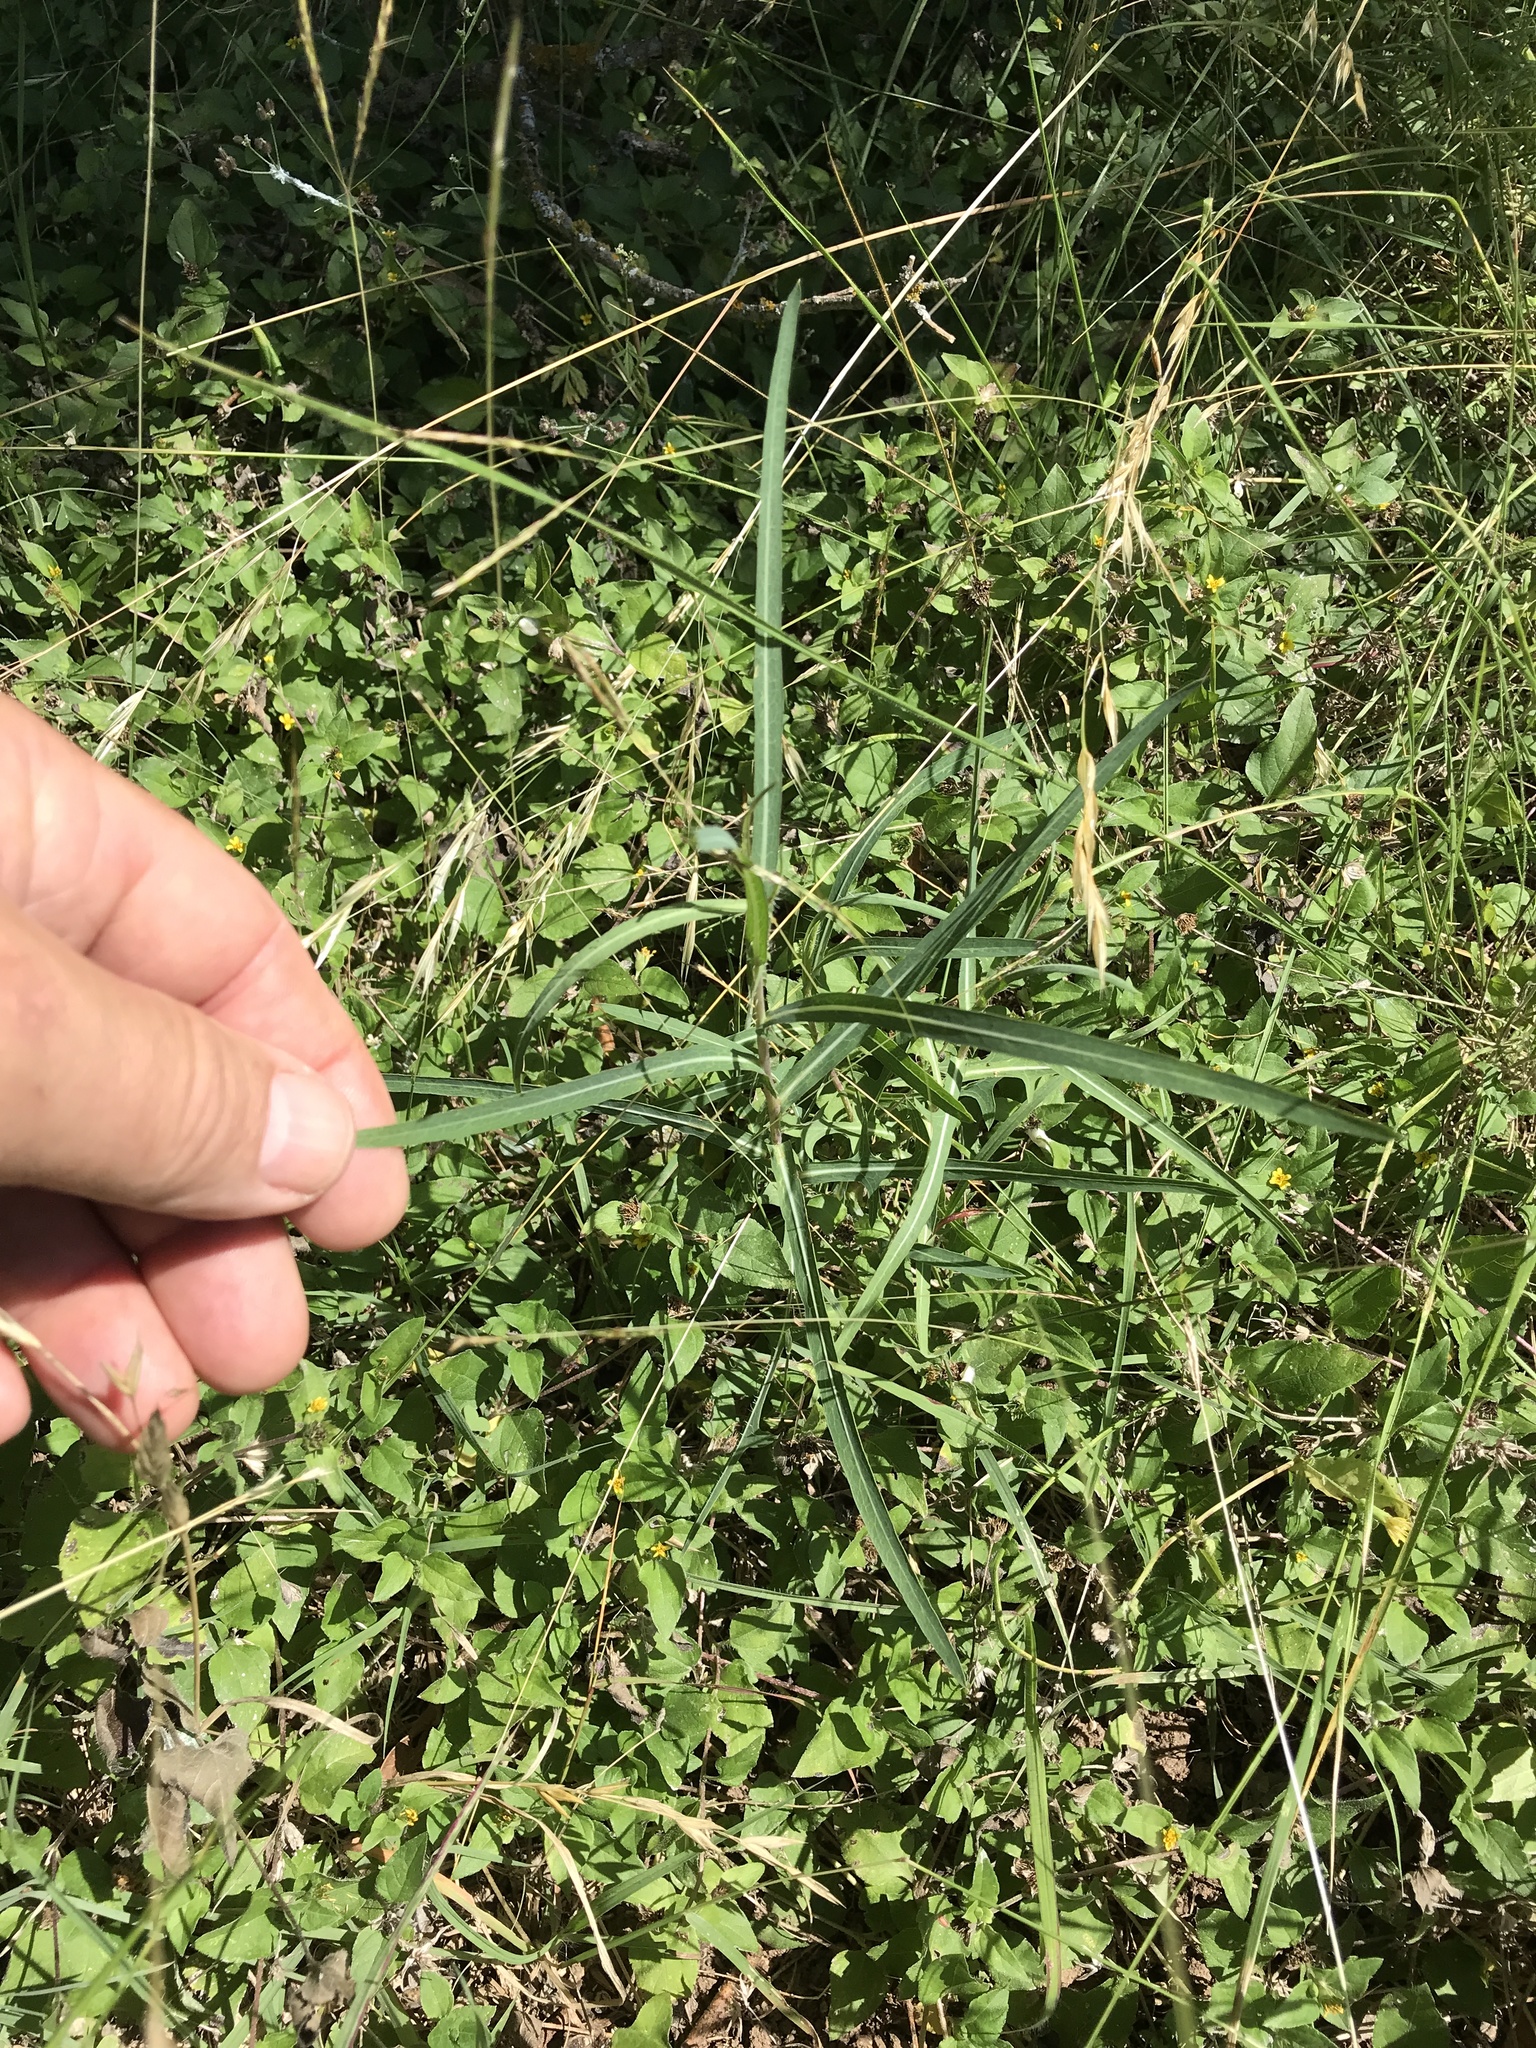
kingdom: Plantae
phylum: Tracheophyta
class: Magnoliopsida
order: Asterales
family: Asteraceae
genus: Lactuca
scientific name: Lactuca saligna
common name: Wild lettuce
